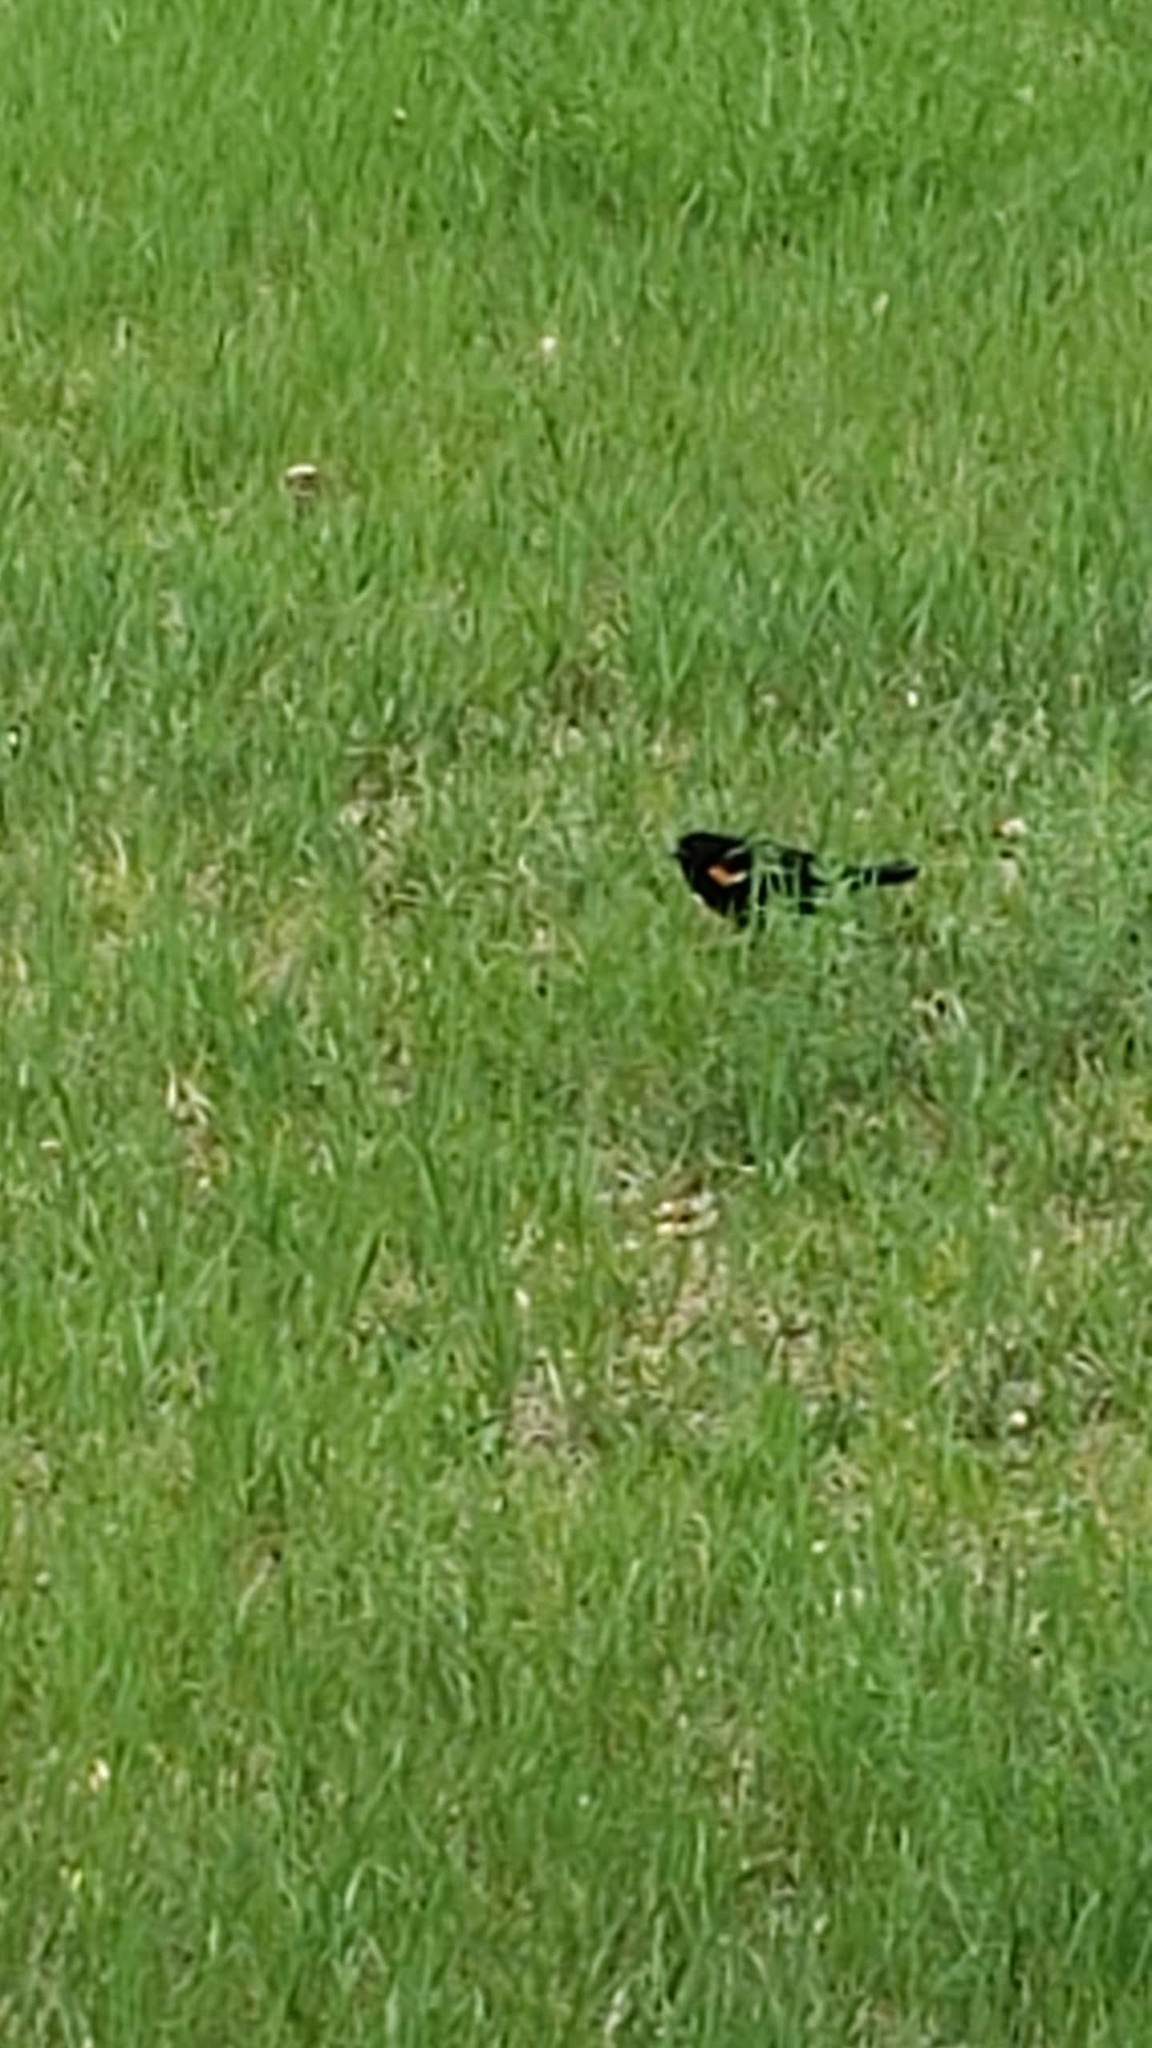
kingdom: Animalia
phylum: Chordata
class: Aves
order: Passeriformes
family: Icteridae
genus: Agelaius
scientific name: Agelaius phoeniceus
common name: Red-winged blackbird
